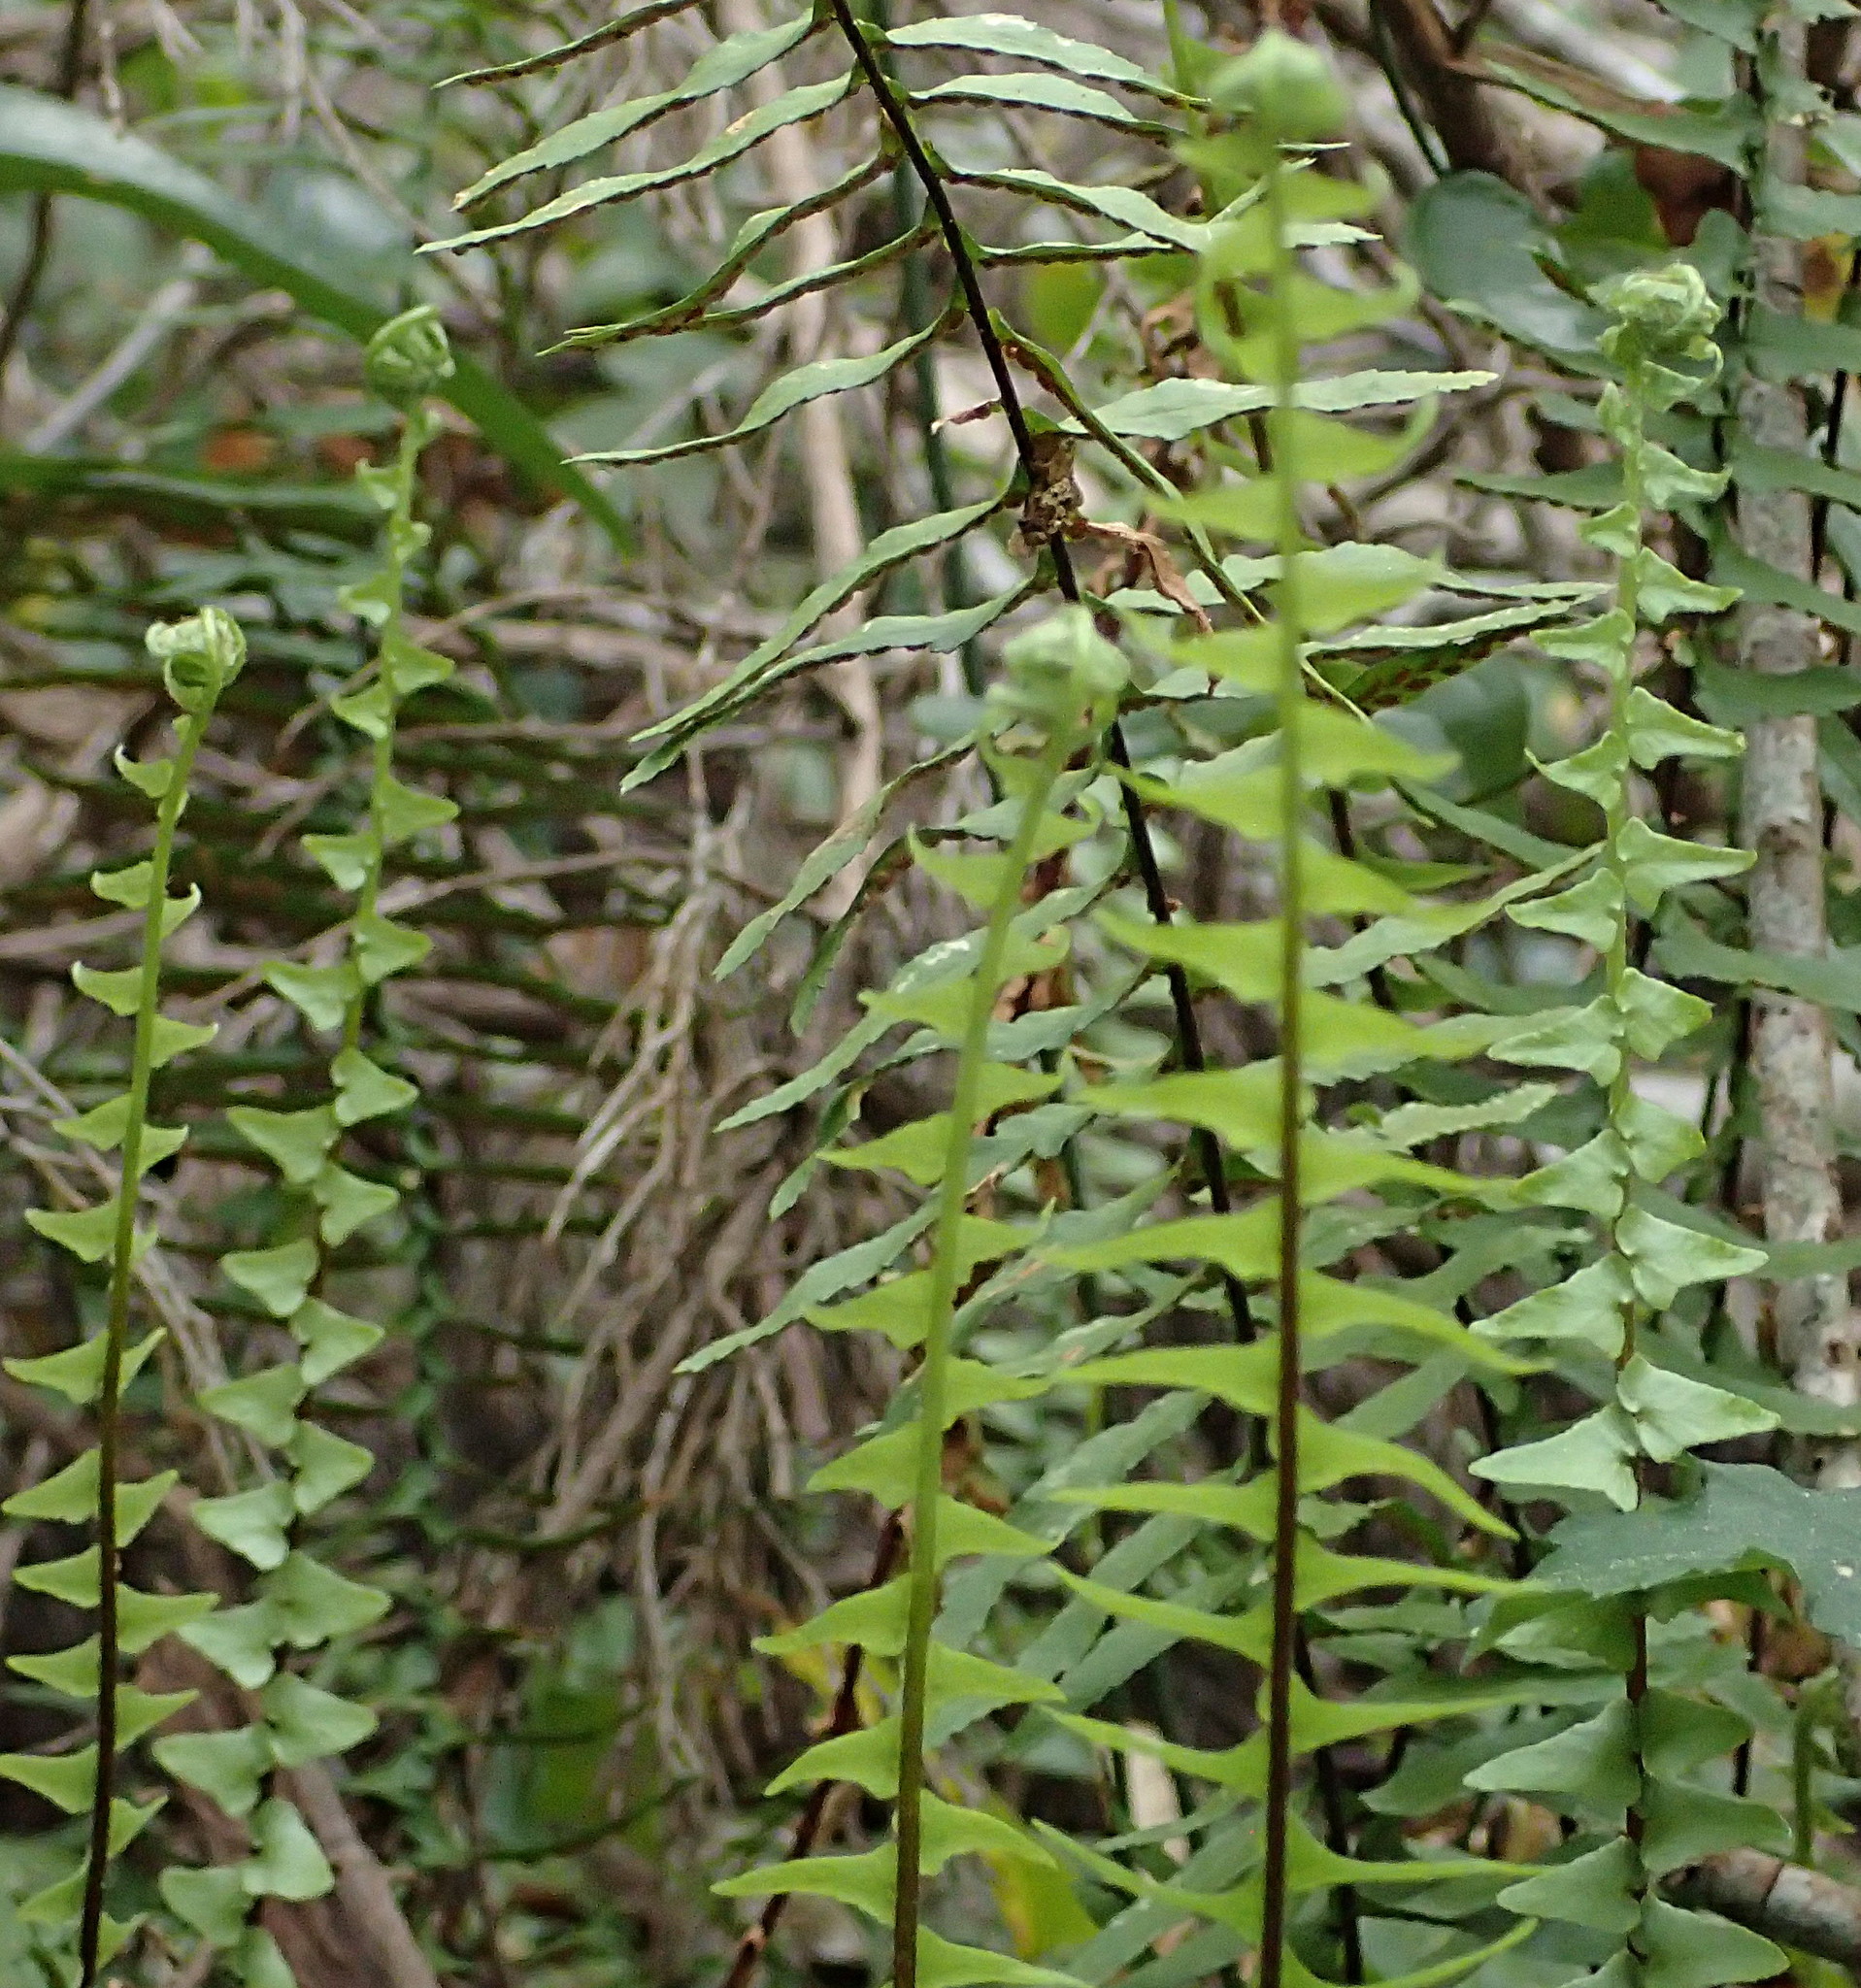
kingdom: Plantae
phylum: Tracheophyta
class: Polypodiopsida
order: Polypodiales
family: Aspleniaceae
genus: Asplenium
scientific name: Asplenium platyneuron
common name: Ebony spleenwort
